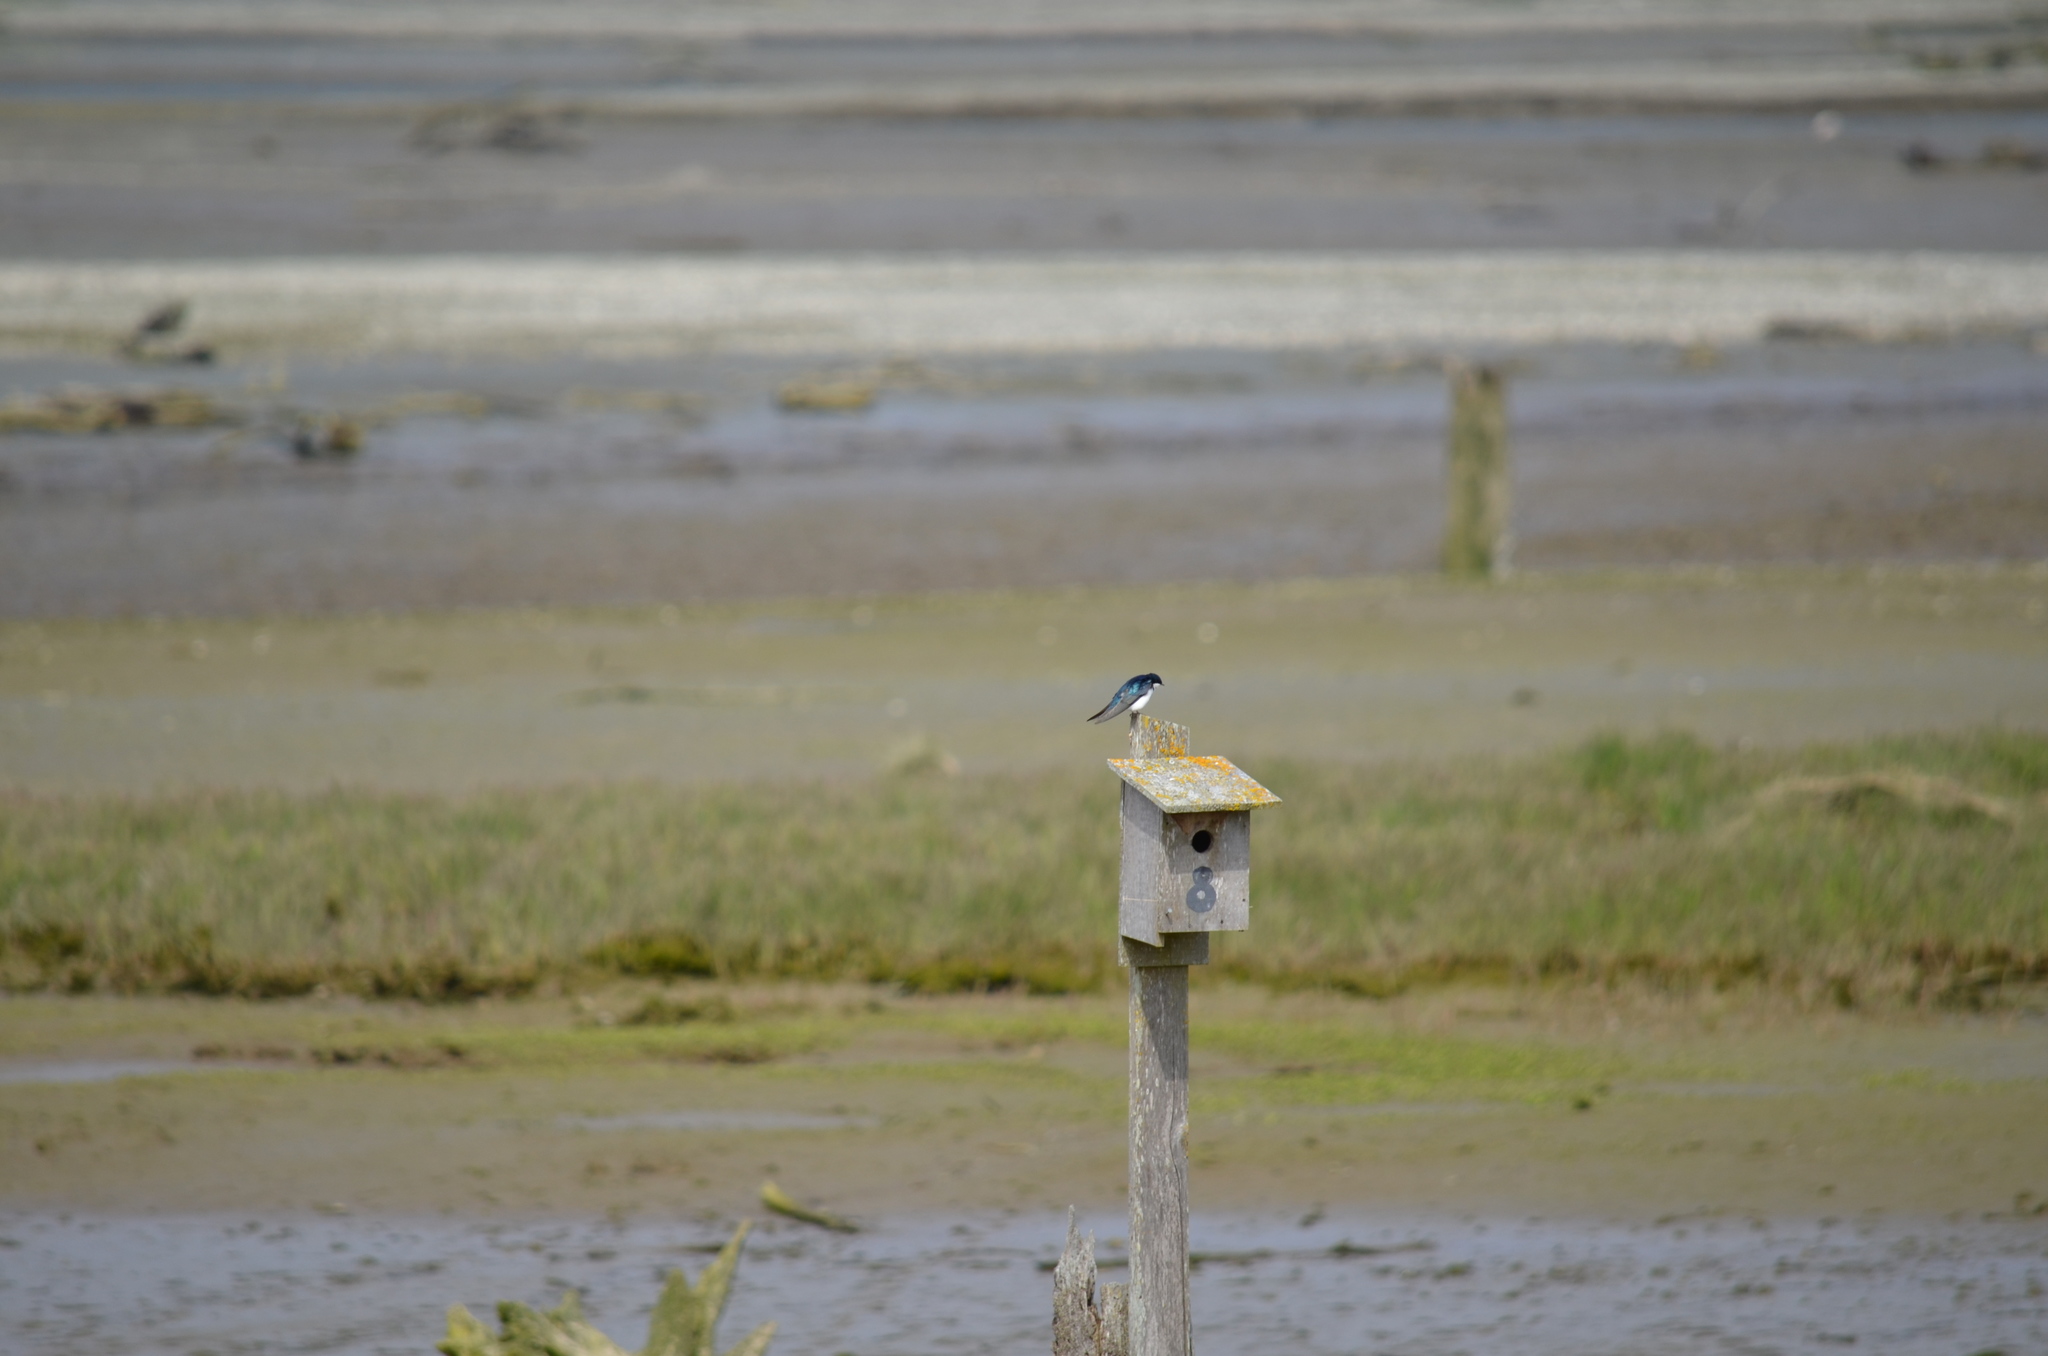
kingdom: Animalia
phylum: Chordata
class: Aves
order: Passeriformes
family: Hirundinidae
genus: Tachycineta
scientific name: Tachycineta bicolor
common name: Tree swallow
